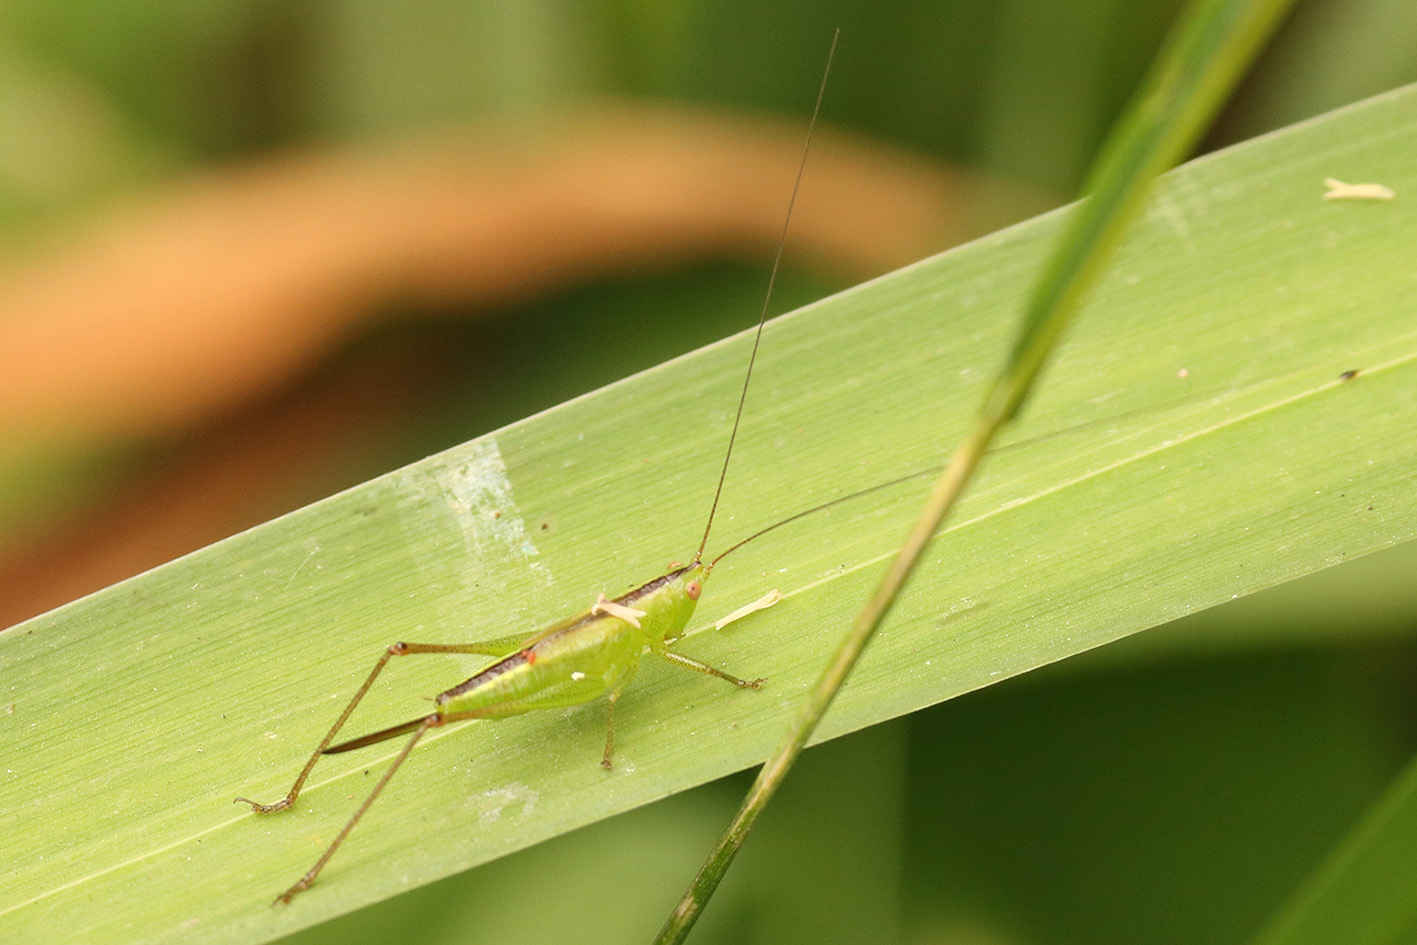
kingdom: Animalia
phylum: Arthropoda
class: Insecta
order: Orthoptera
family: Tettigoniidae
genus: Conocephalus
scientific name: Conocephalus longipes
